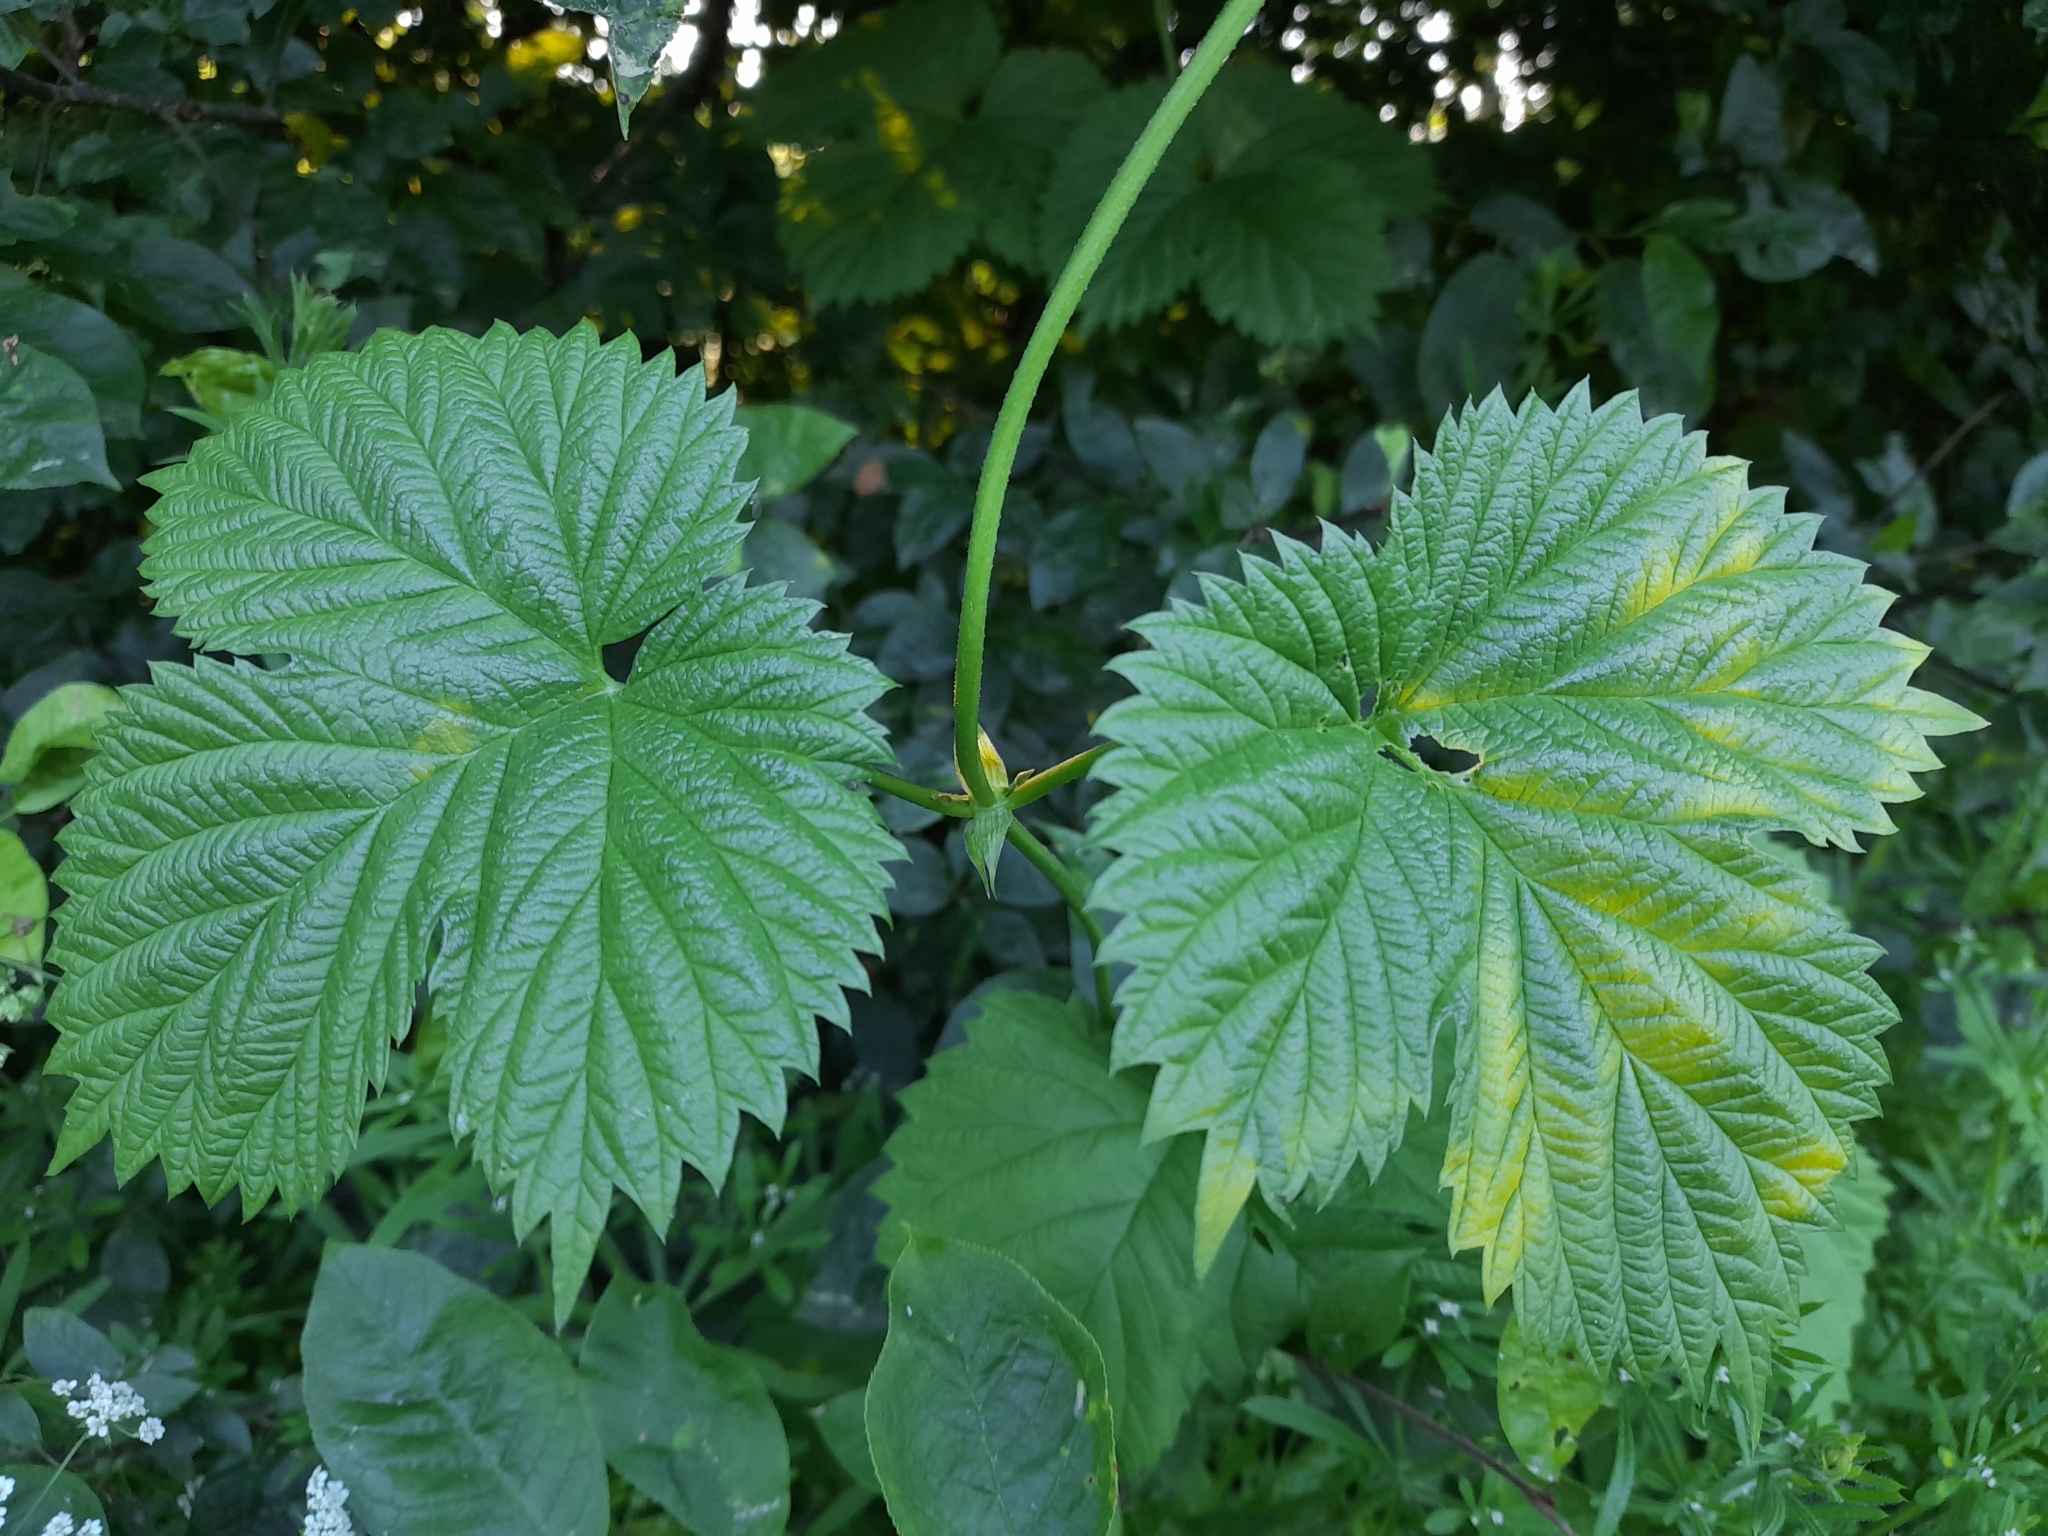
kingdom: Plantae
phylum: Tracheophyta
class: Magnoliopsida
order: Rosales
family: Cannabaceae
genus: Humulus
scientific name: Humulus lupulus
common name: Hop
